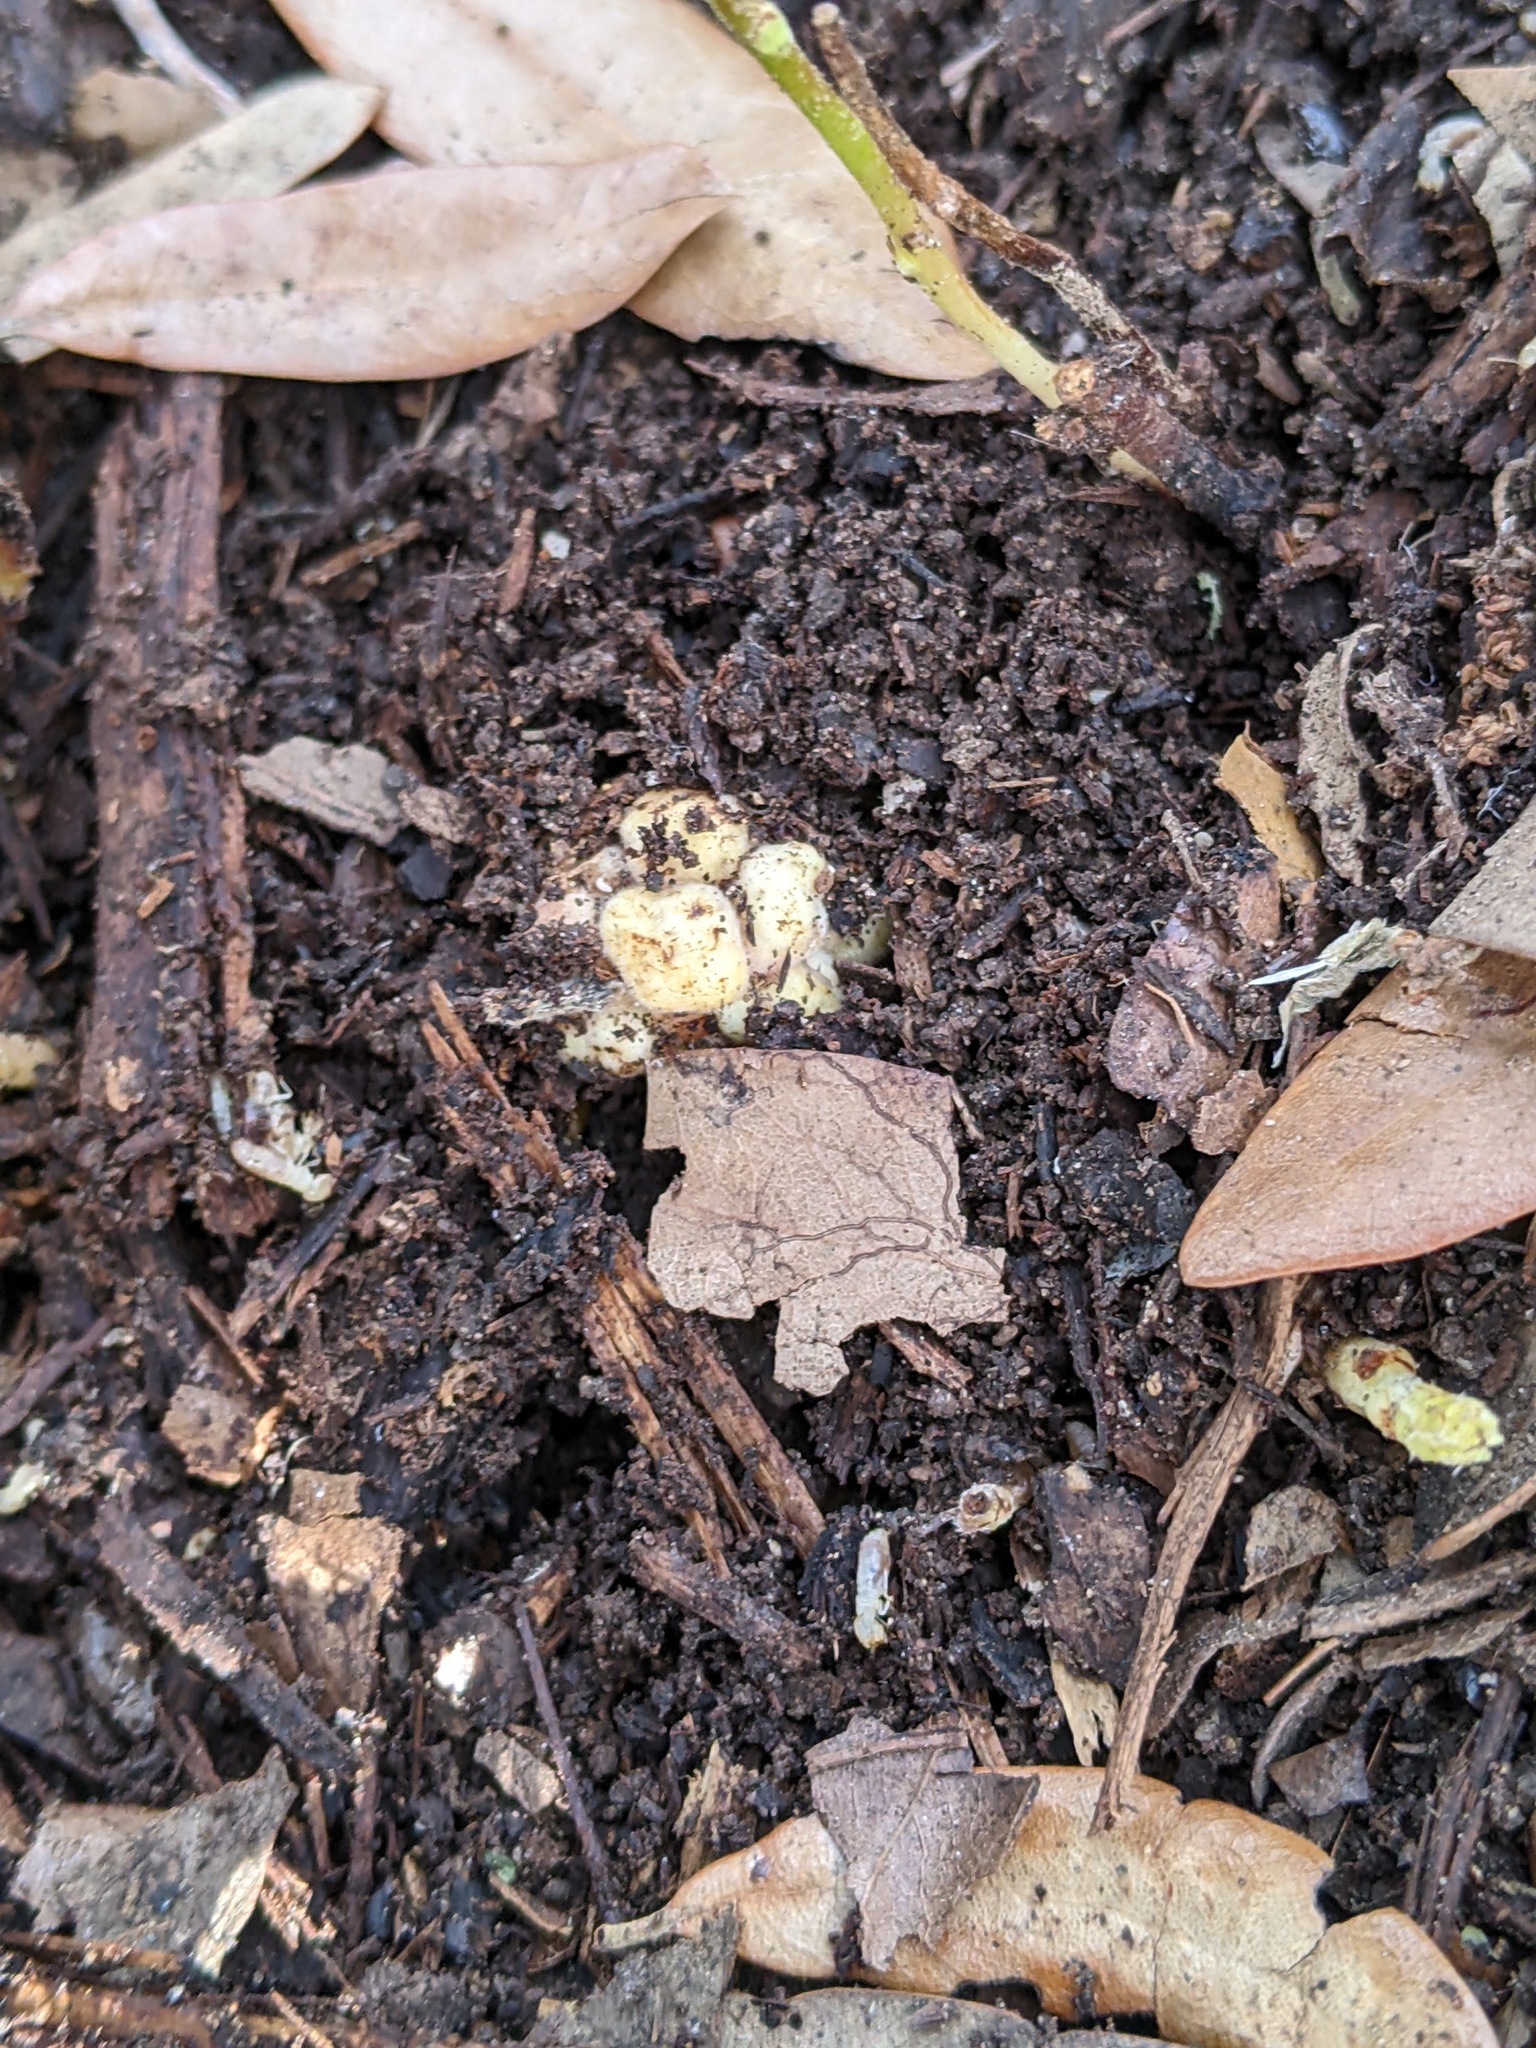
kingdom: Animalia
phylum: Arthropoda
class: Insecta
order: Hymenoptera
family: Cynipidae
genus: Belonocnema
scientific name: Belonocnema kinseyi
